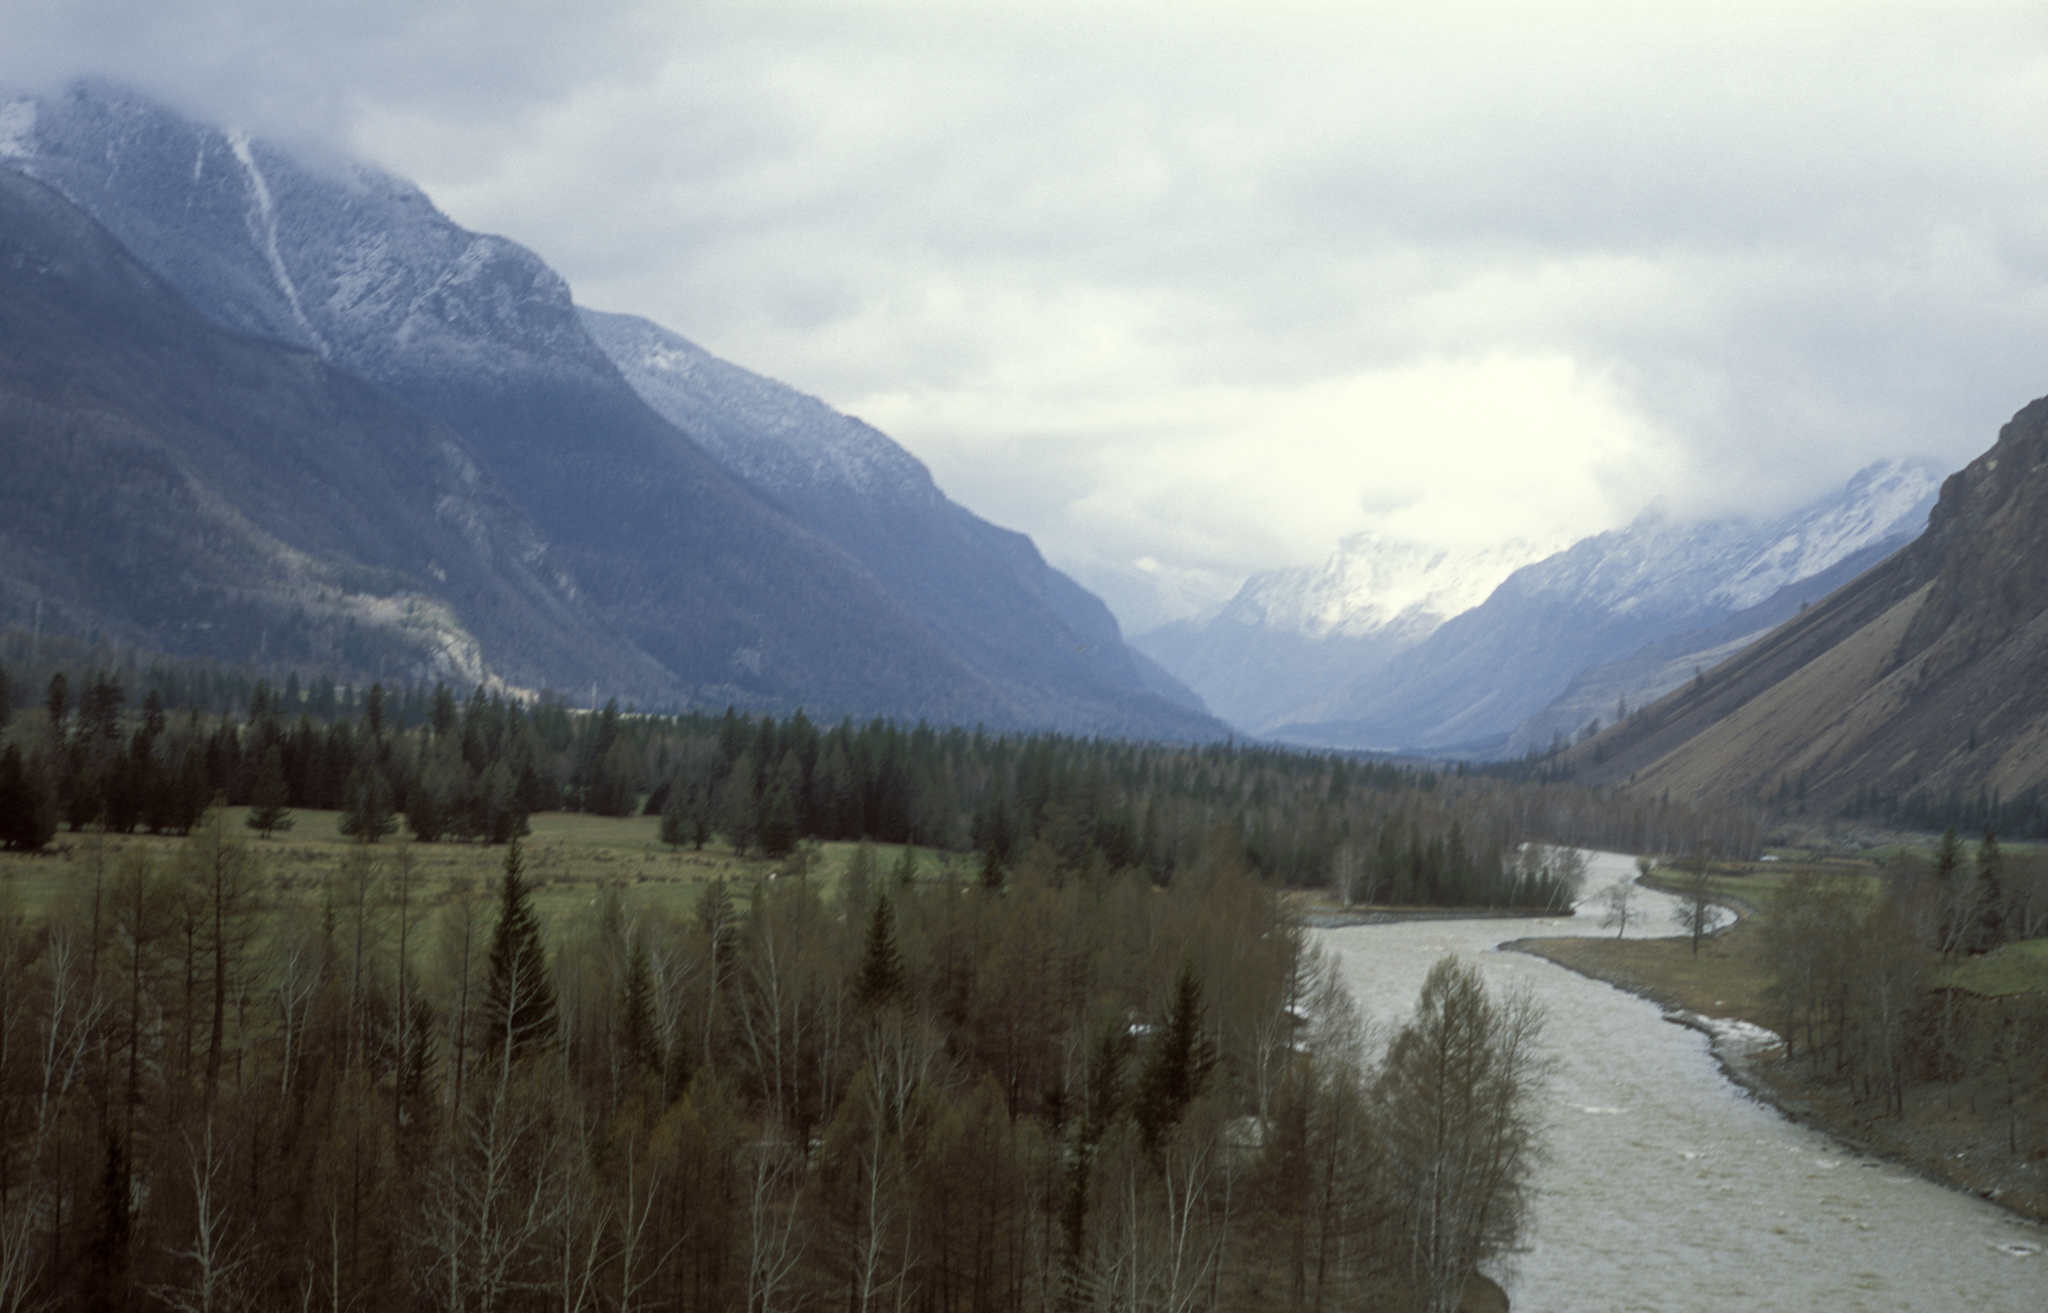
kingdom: Plantae
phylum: Tracheophyta
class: Pinopsida
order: Pinales
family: Pinaceae
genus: Picea
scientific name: Picea obovata
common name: Siberian spruce
